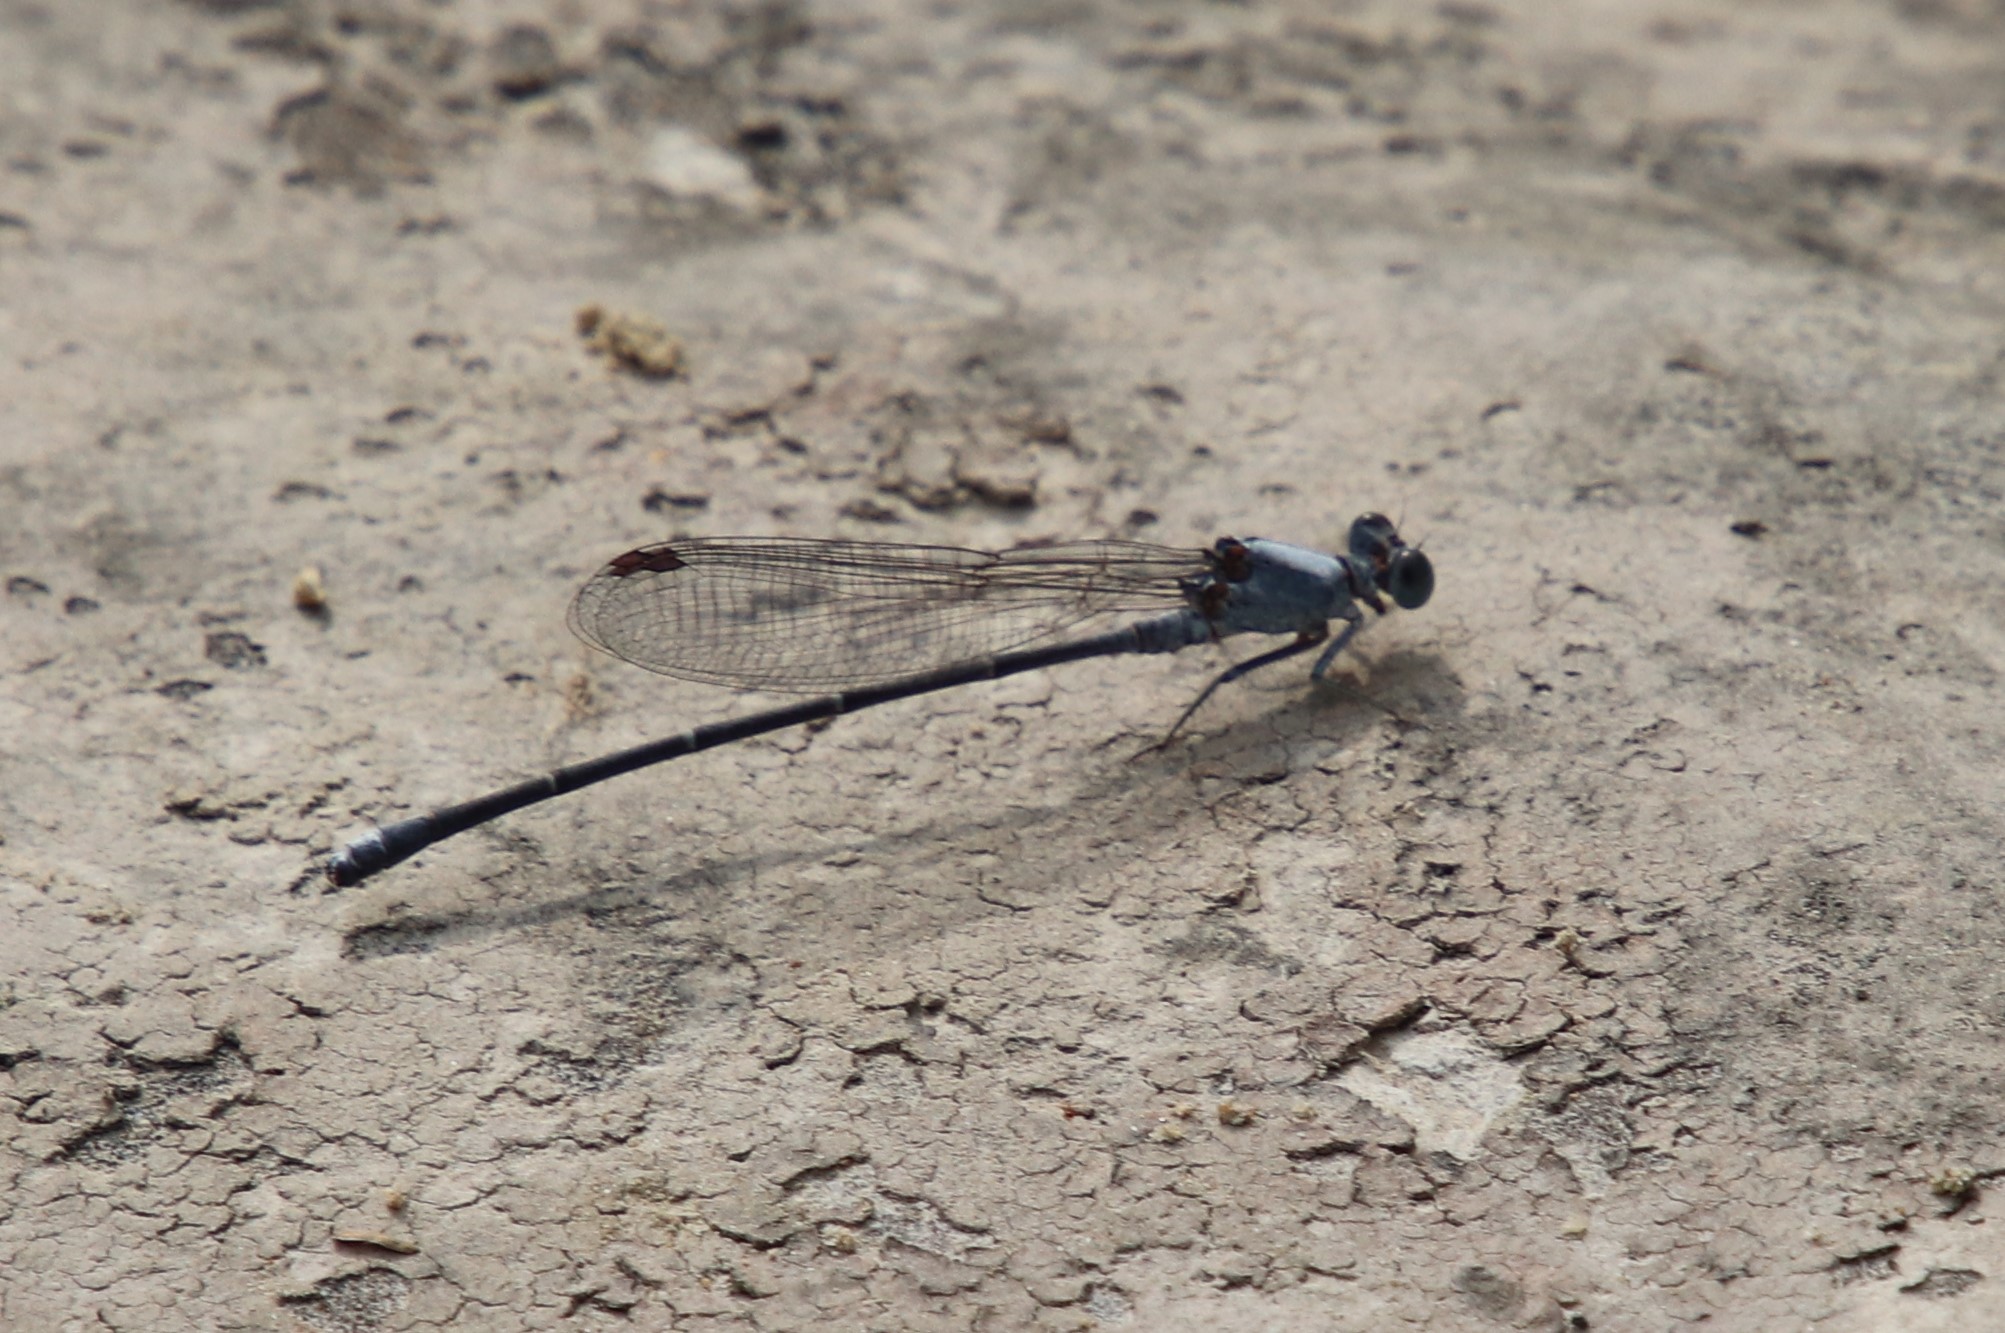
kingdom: Animalia
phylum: Arthropoda
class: Insecta
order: Odonata
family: Coenagrionidae
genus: Argia
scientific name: Argia moesta
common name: Powdered dancer
